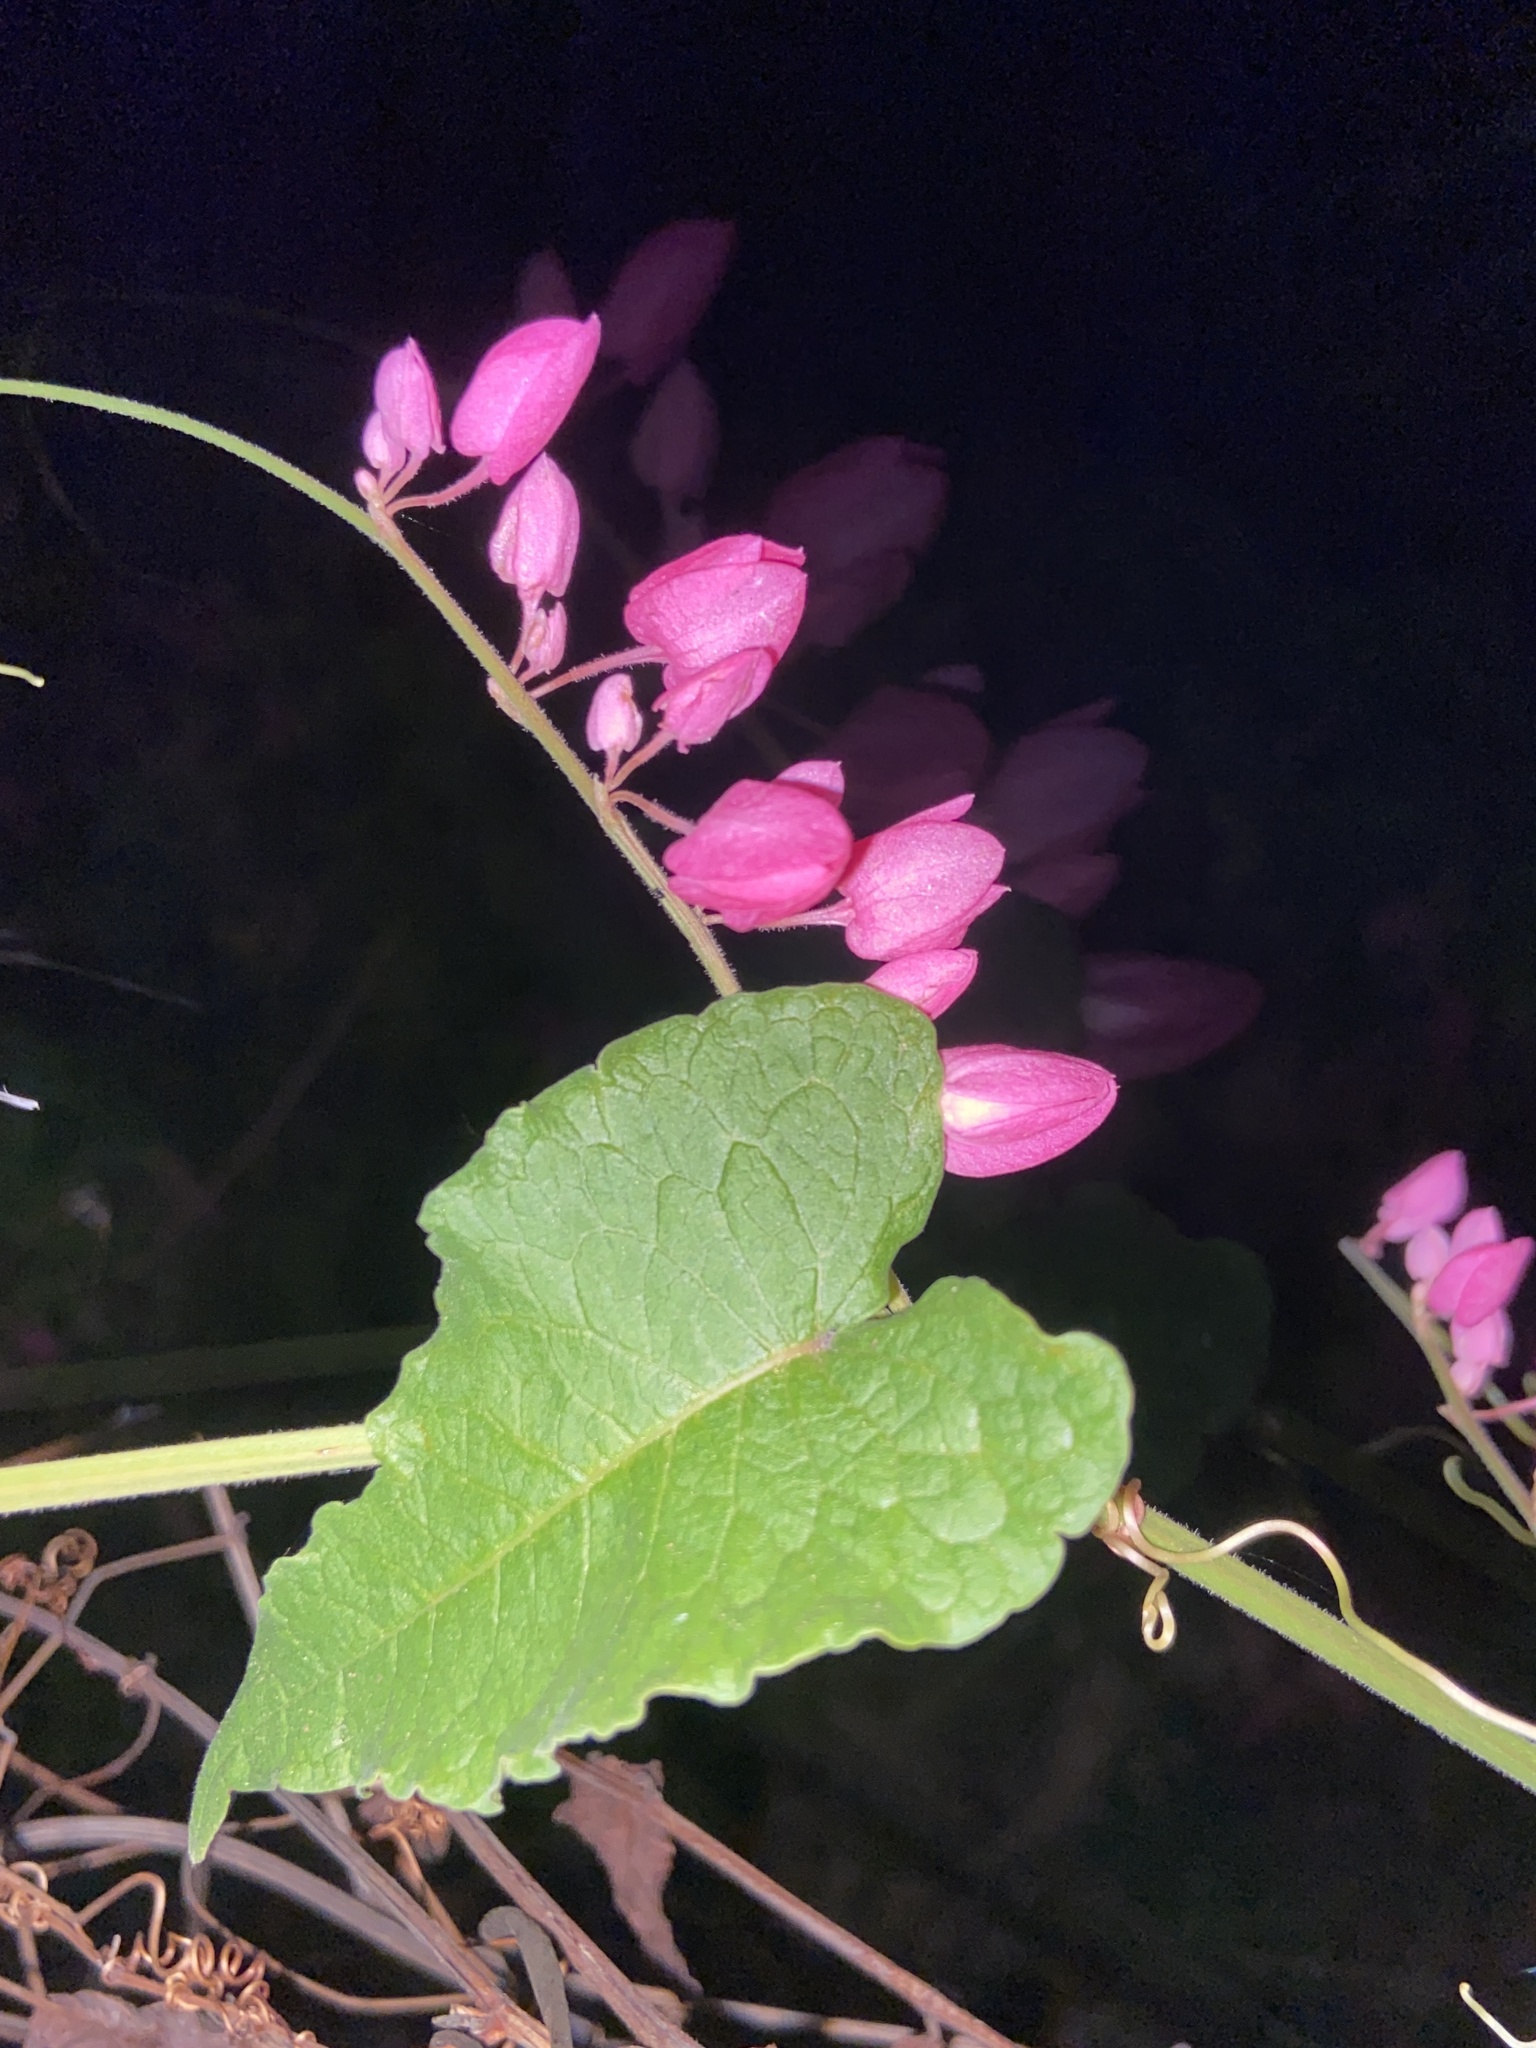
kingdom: Plantae
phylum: Tracheophyta
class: Magnoliopsida
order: Caryophyllales
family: Polygonaceae
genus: Antigonon
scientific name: Antigonon leptopus
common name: Coral vine
